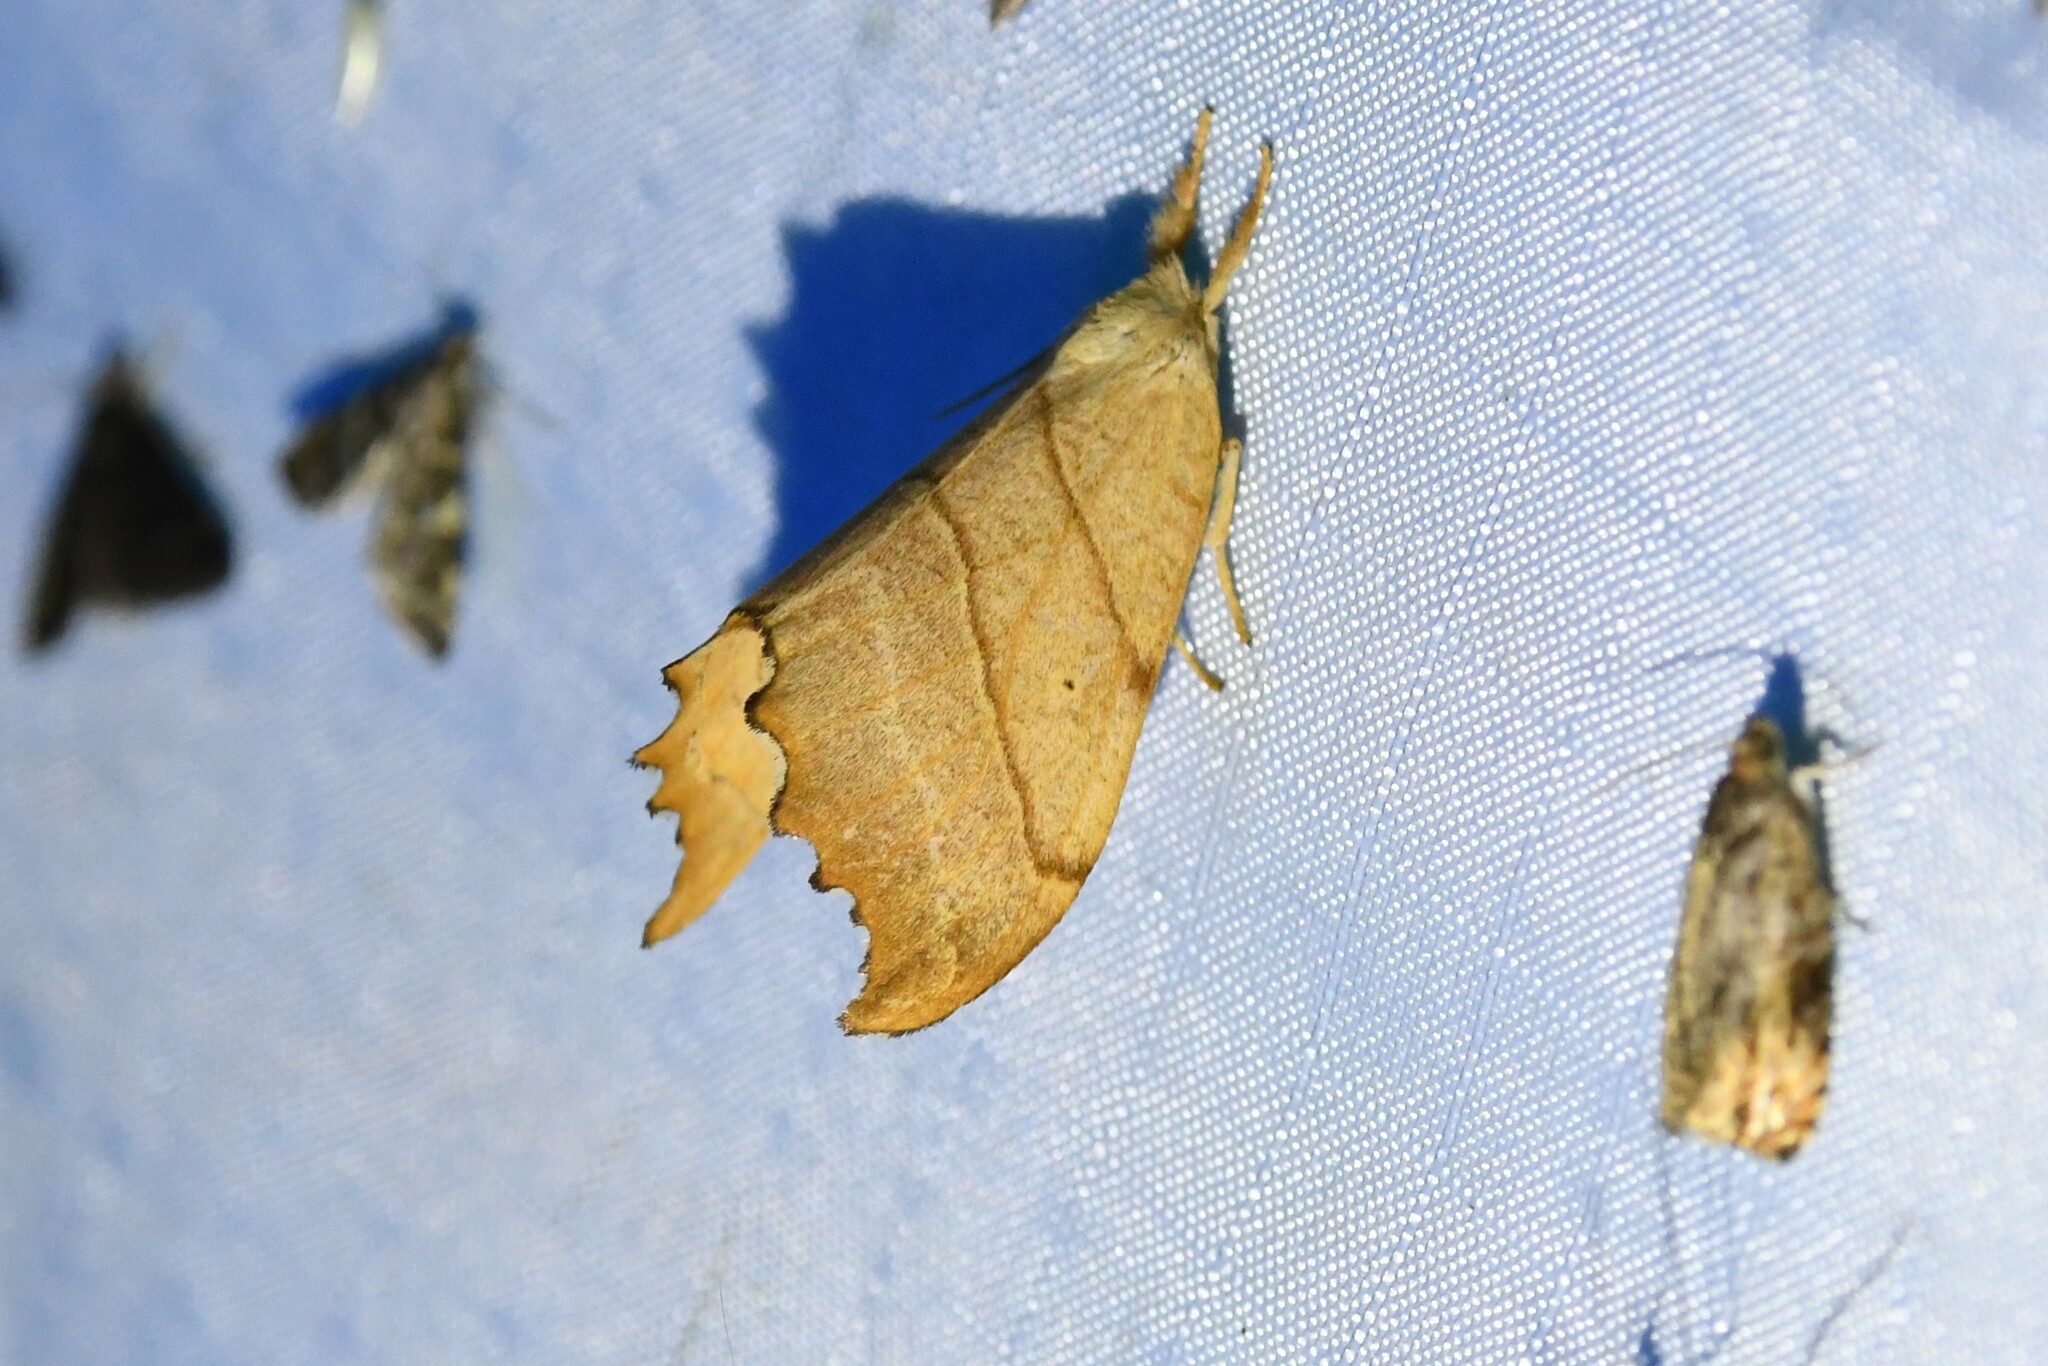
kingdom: Animalia
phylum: Arthropoda
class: Insecta
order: Lepidoptera
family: Drepanidae
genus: Falcaria
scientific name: Falcaria bilineata
